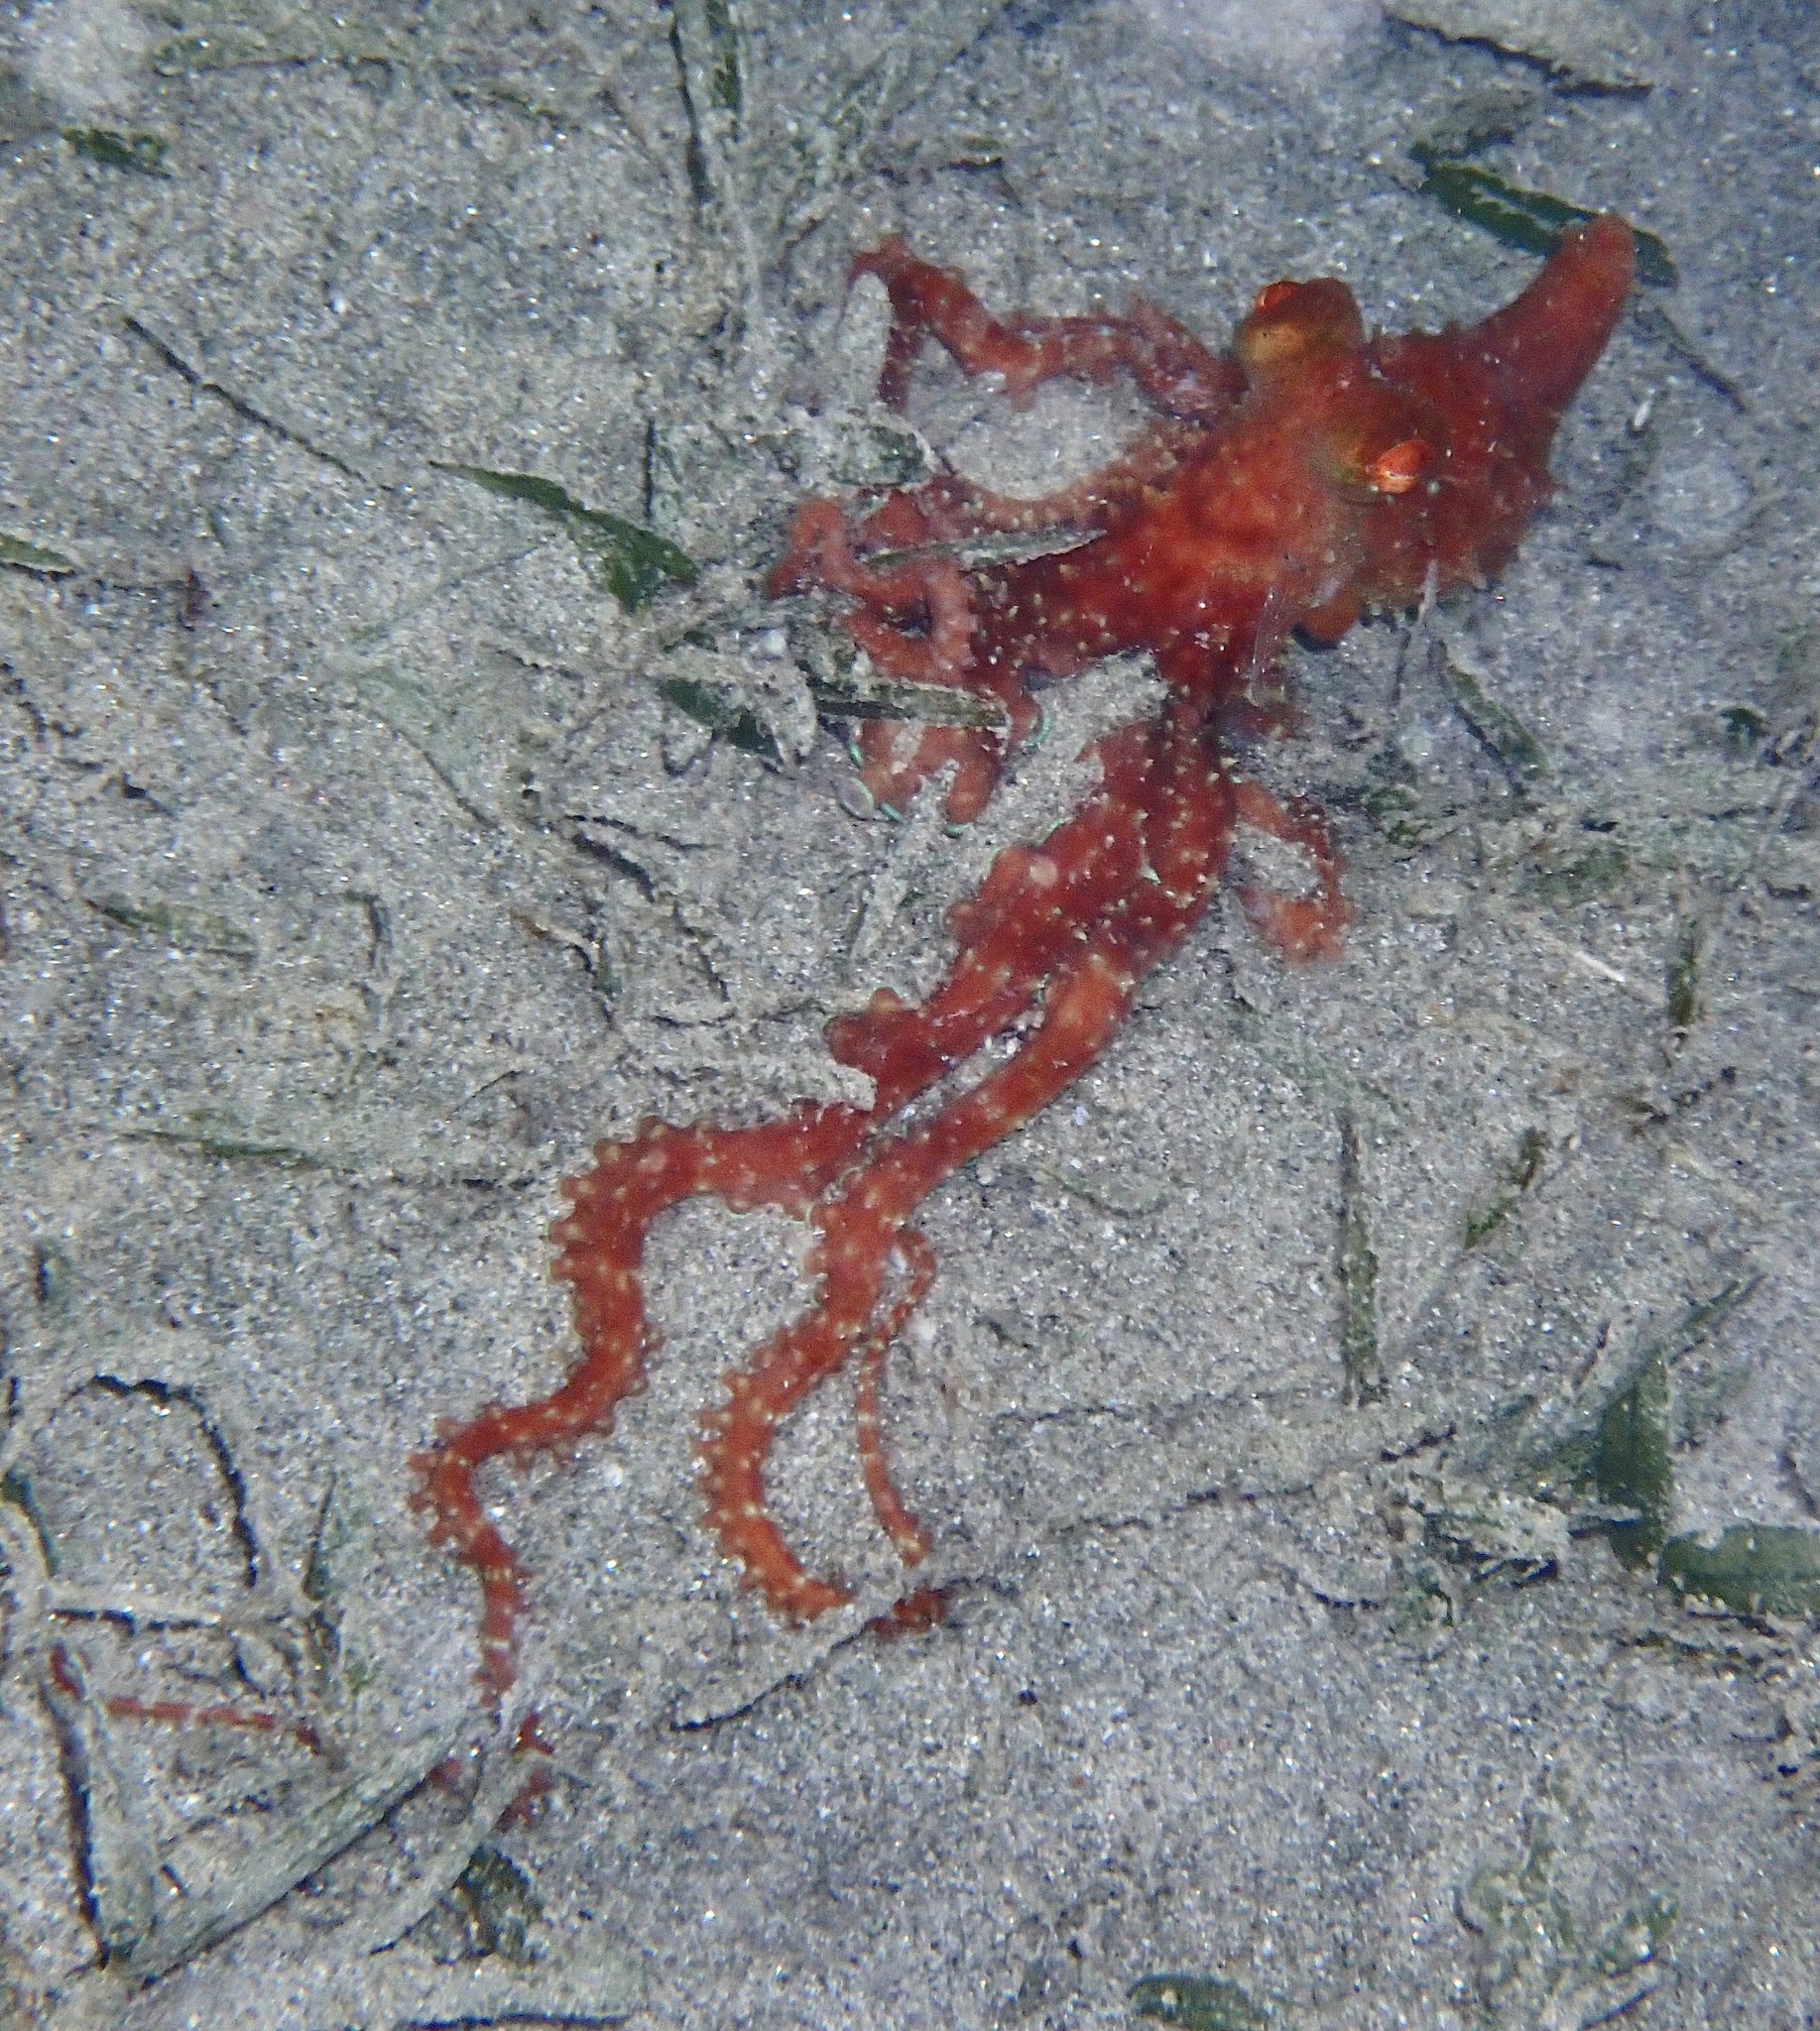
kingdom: Animalia
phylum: Mollusca
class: Cephalopoda
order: Octopoda
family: Octopodidae
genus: Callistoctopus
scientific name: Callistoctopus ornatus
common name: Ornate octopus
